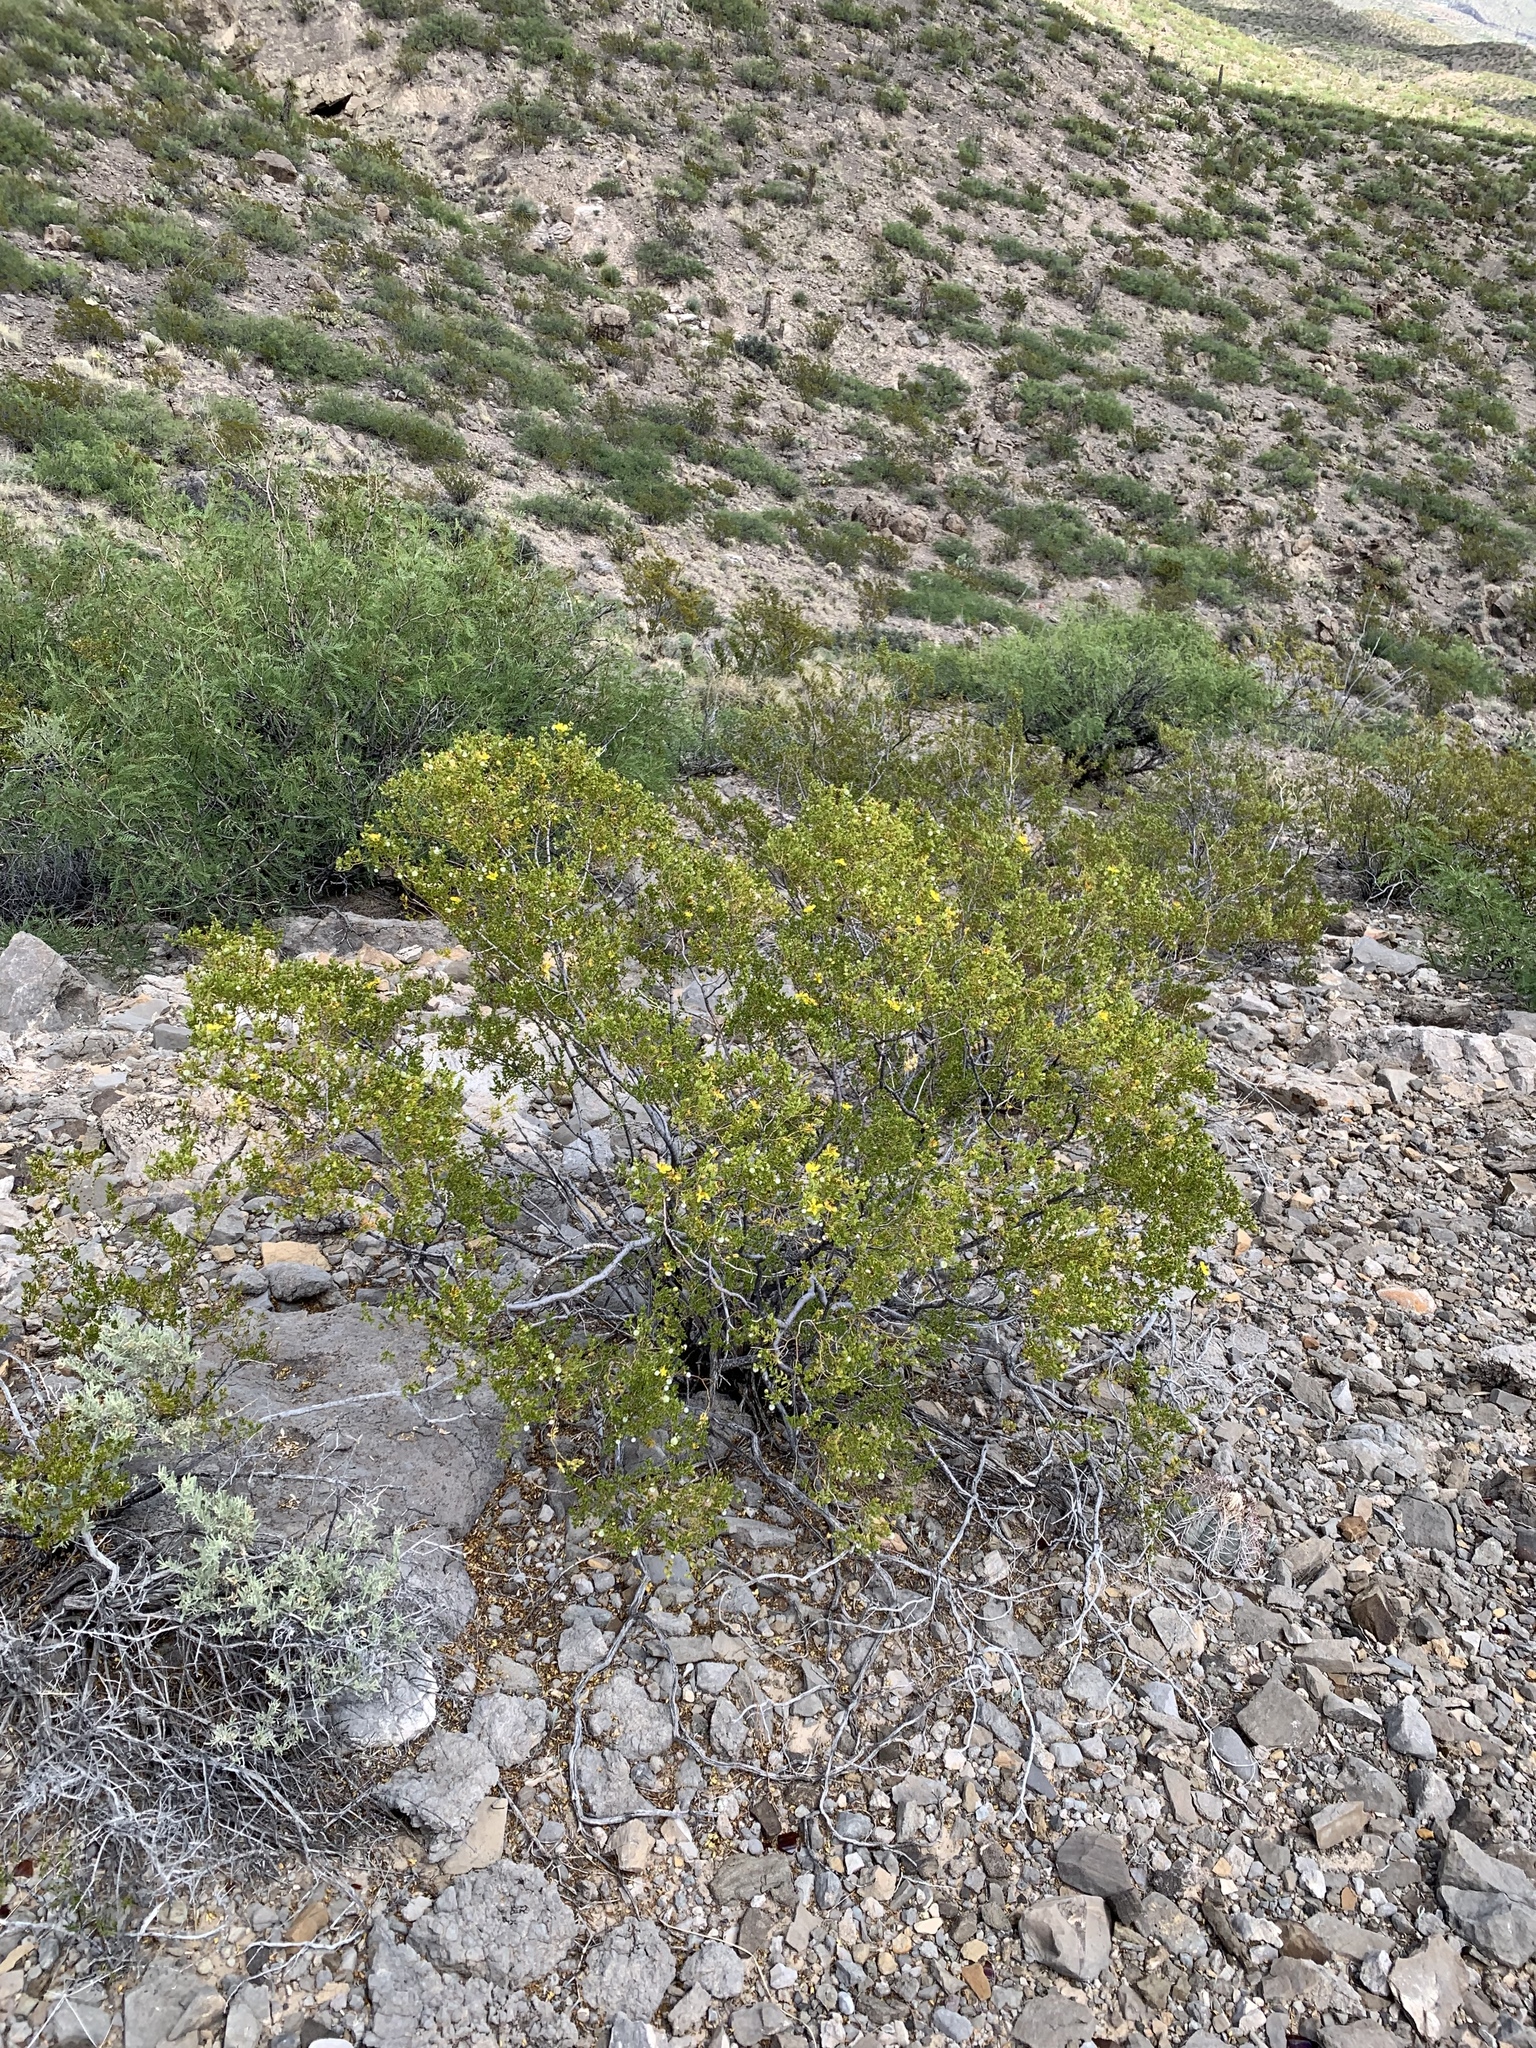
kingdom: Plantae
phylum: Tracheophyta
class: Magnoliopsida
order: Zygophyllales
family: Zygophyllaceae
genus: Larrea
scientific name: Larrea tridentata
